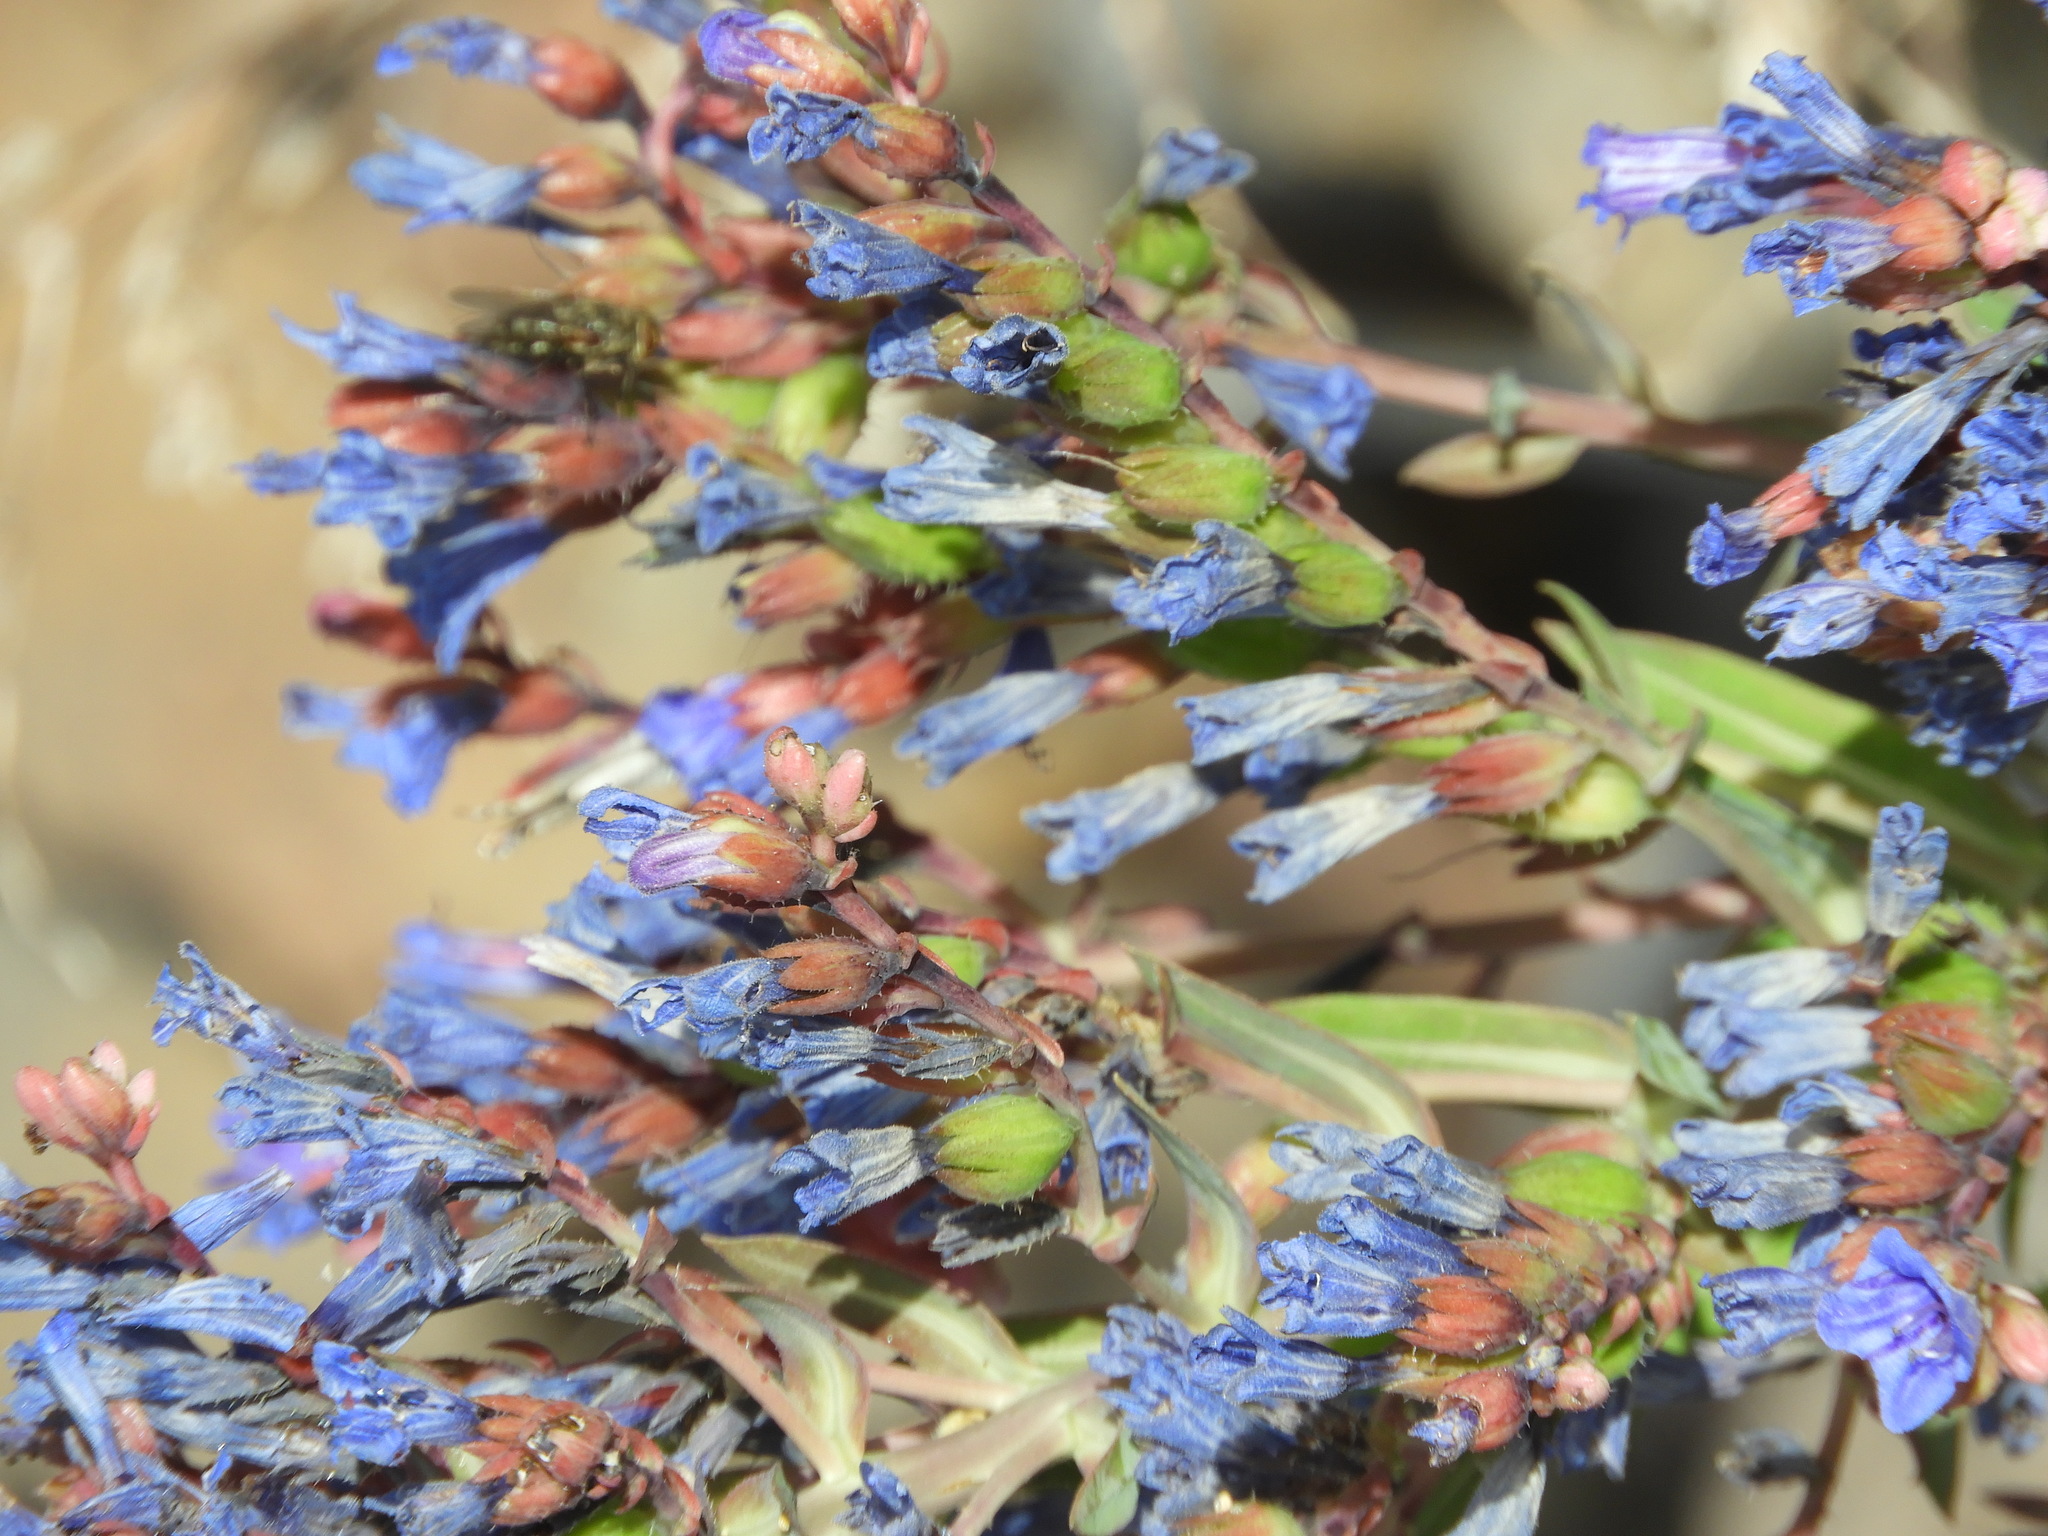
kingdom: Plantae
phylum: Tracheophyta
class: Magnoliopsida
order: Boraginales
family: Boraginaceae
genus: Echium
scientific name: Echium thyrsiflorum
